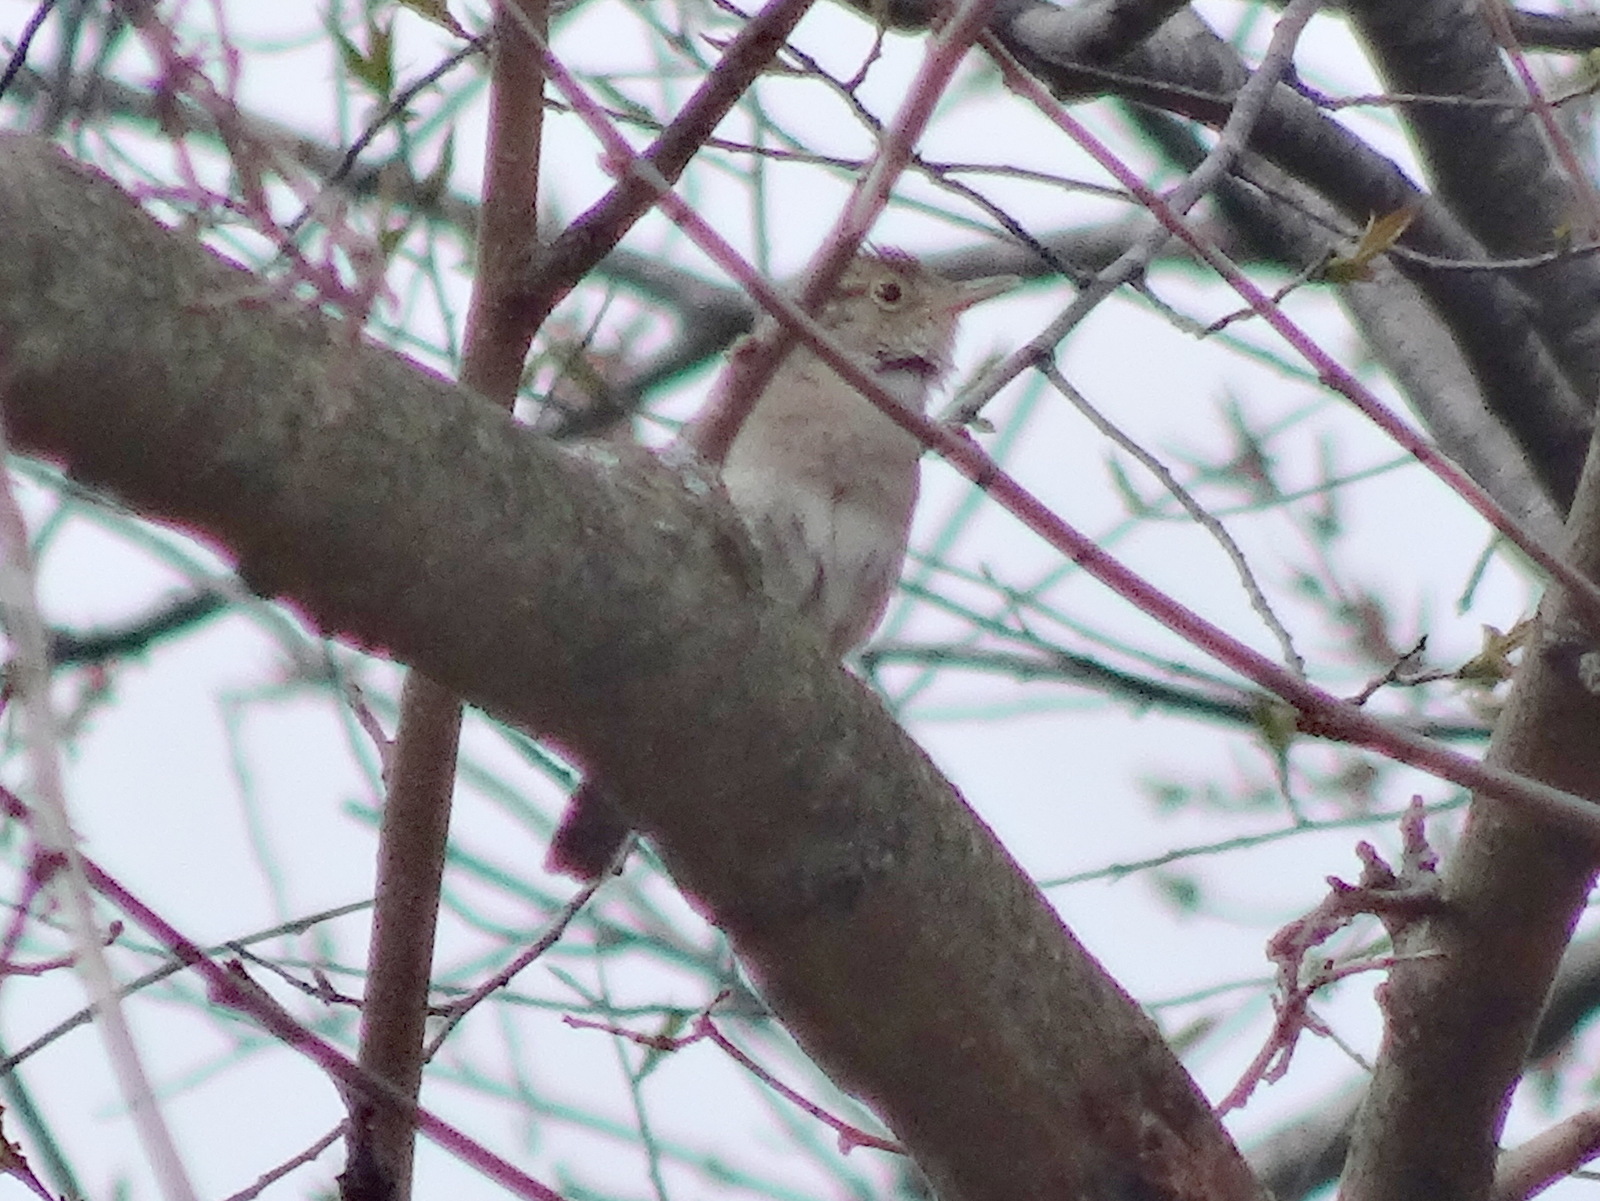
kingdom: Animalia
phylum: Chordata
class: Aves
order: Passeriformes
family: Troglodytidae
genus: Troglodytes
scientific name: Troglodytes aedon
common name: House wren
